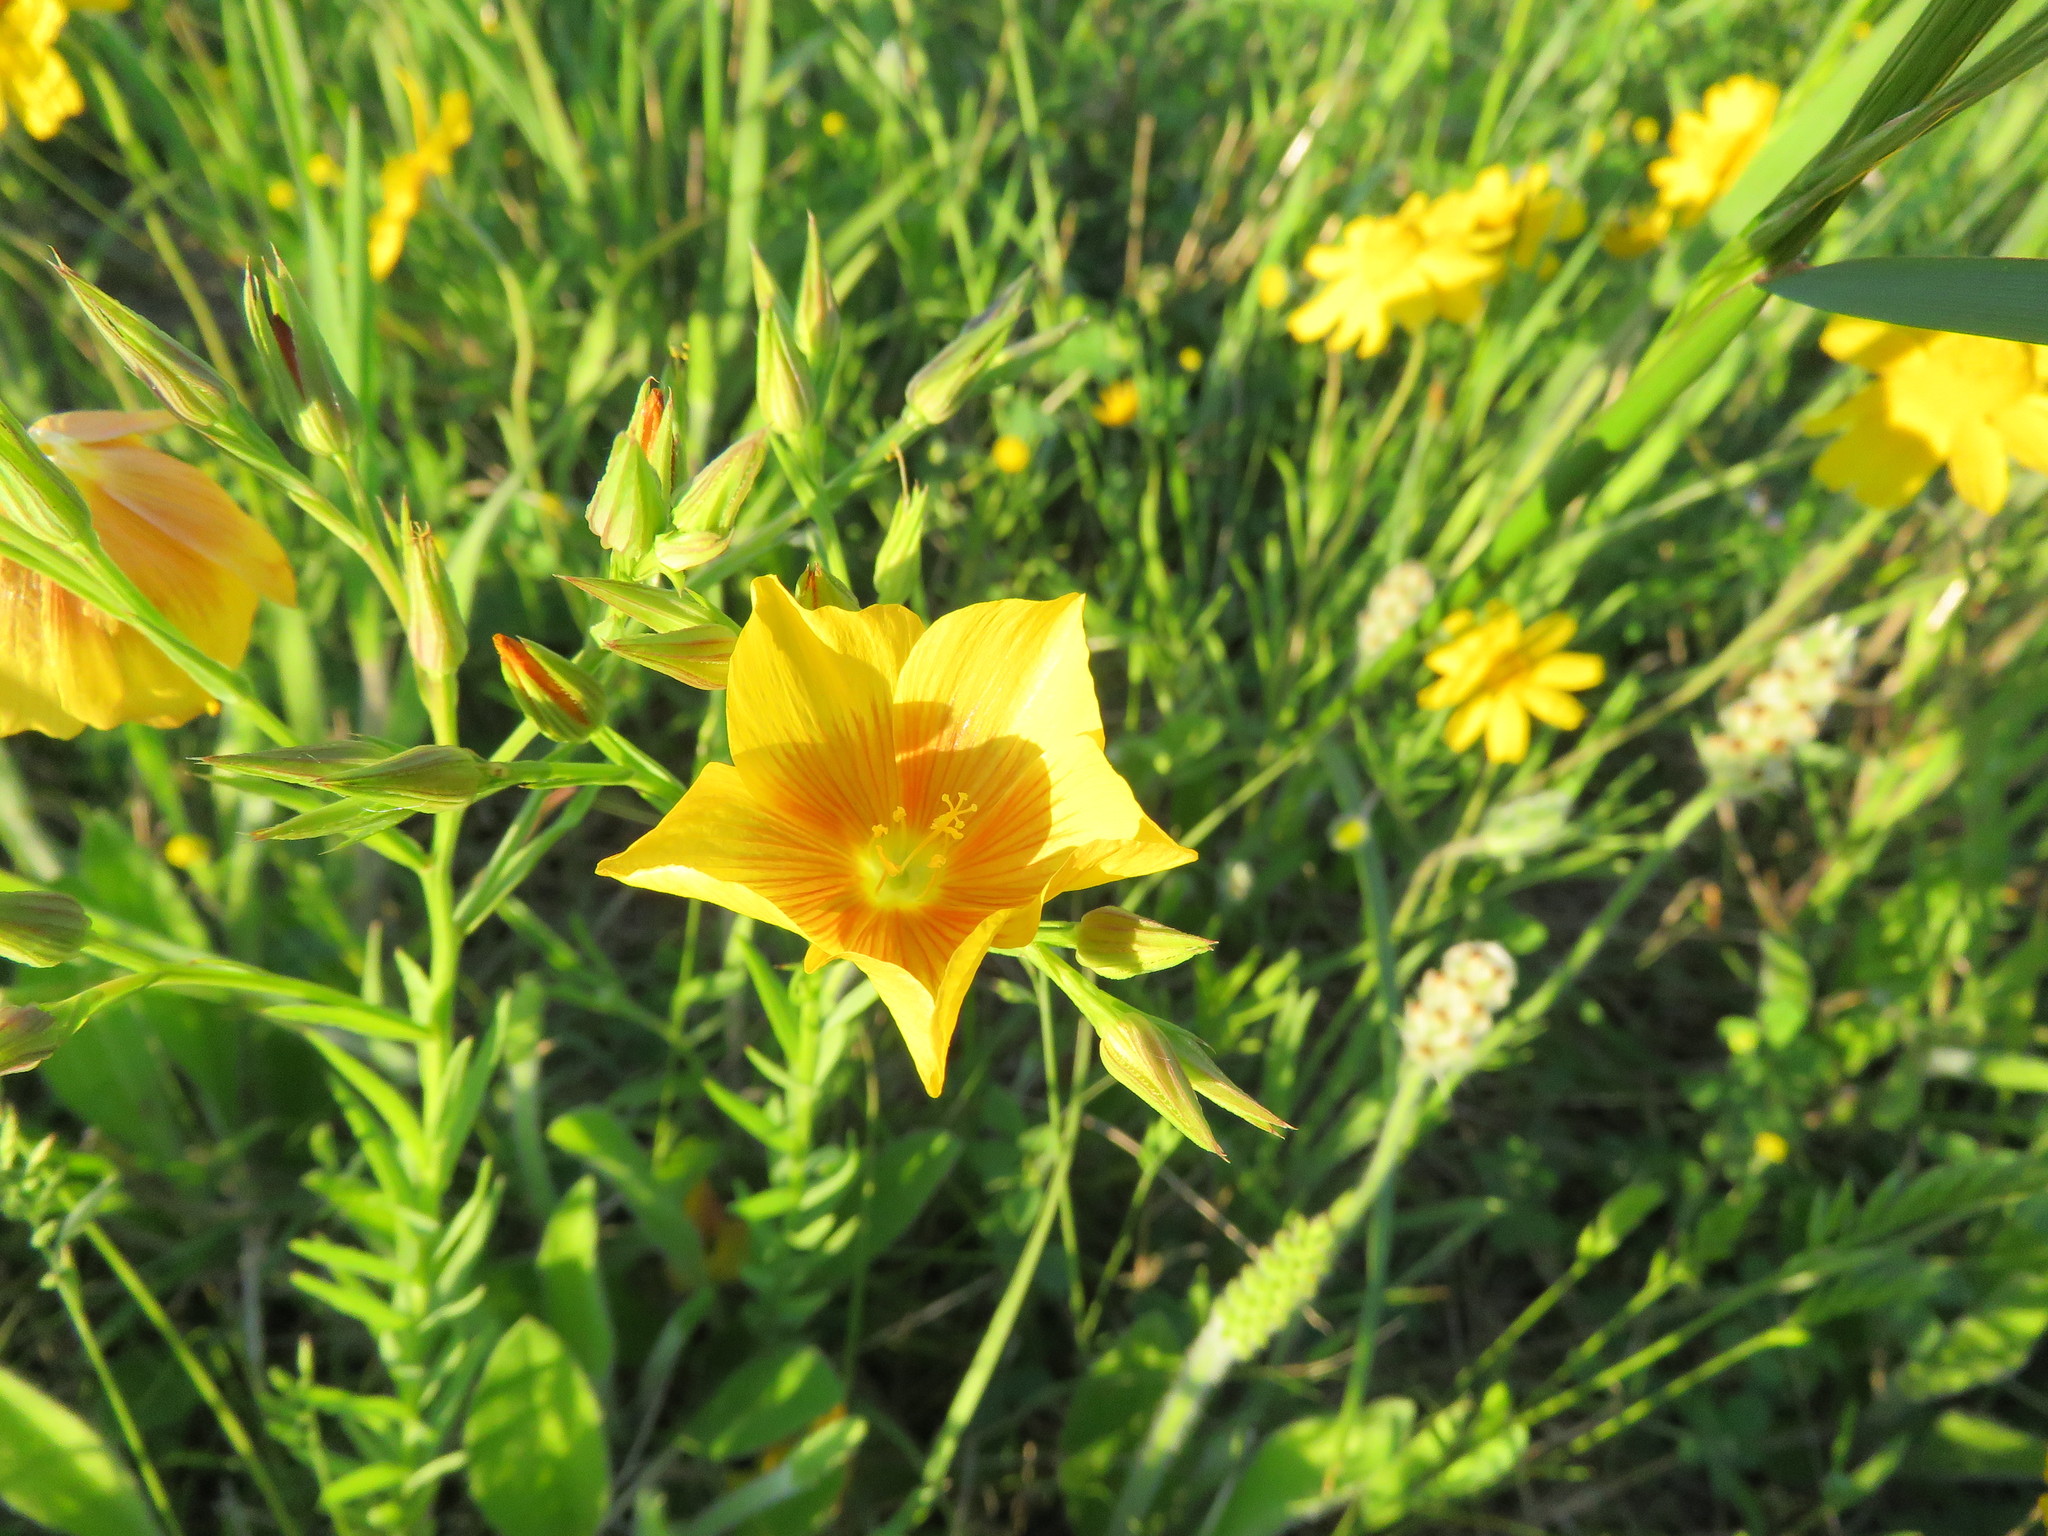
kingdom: Plantae
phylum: Tracheophyta
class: Magnoliopsida
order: Malpighiales
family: Linaceae
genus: Linum
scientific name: Linum berlandieri
